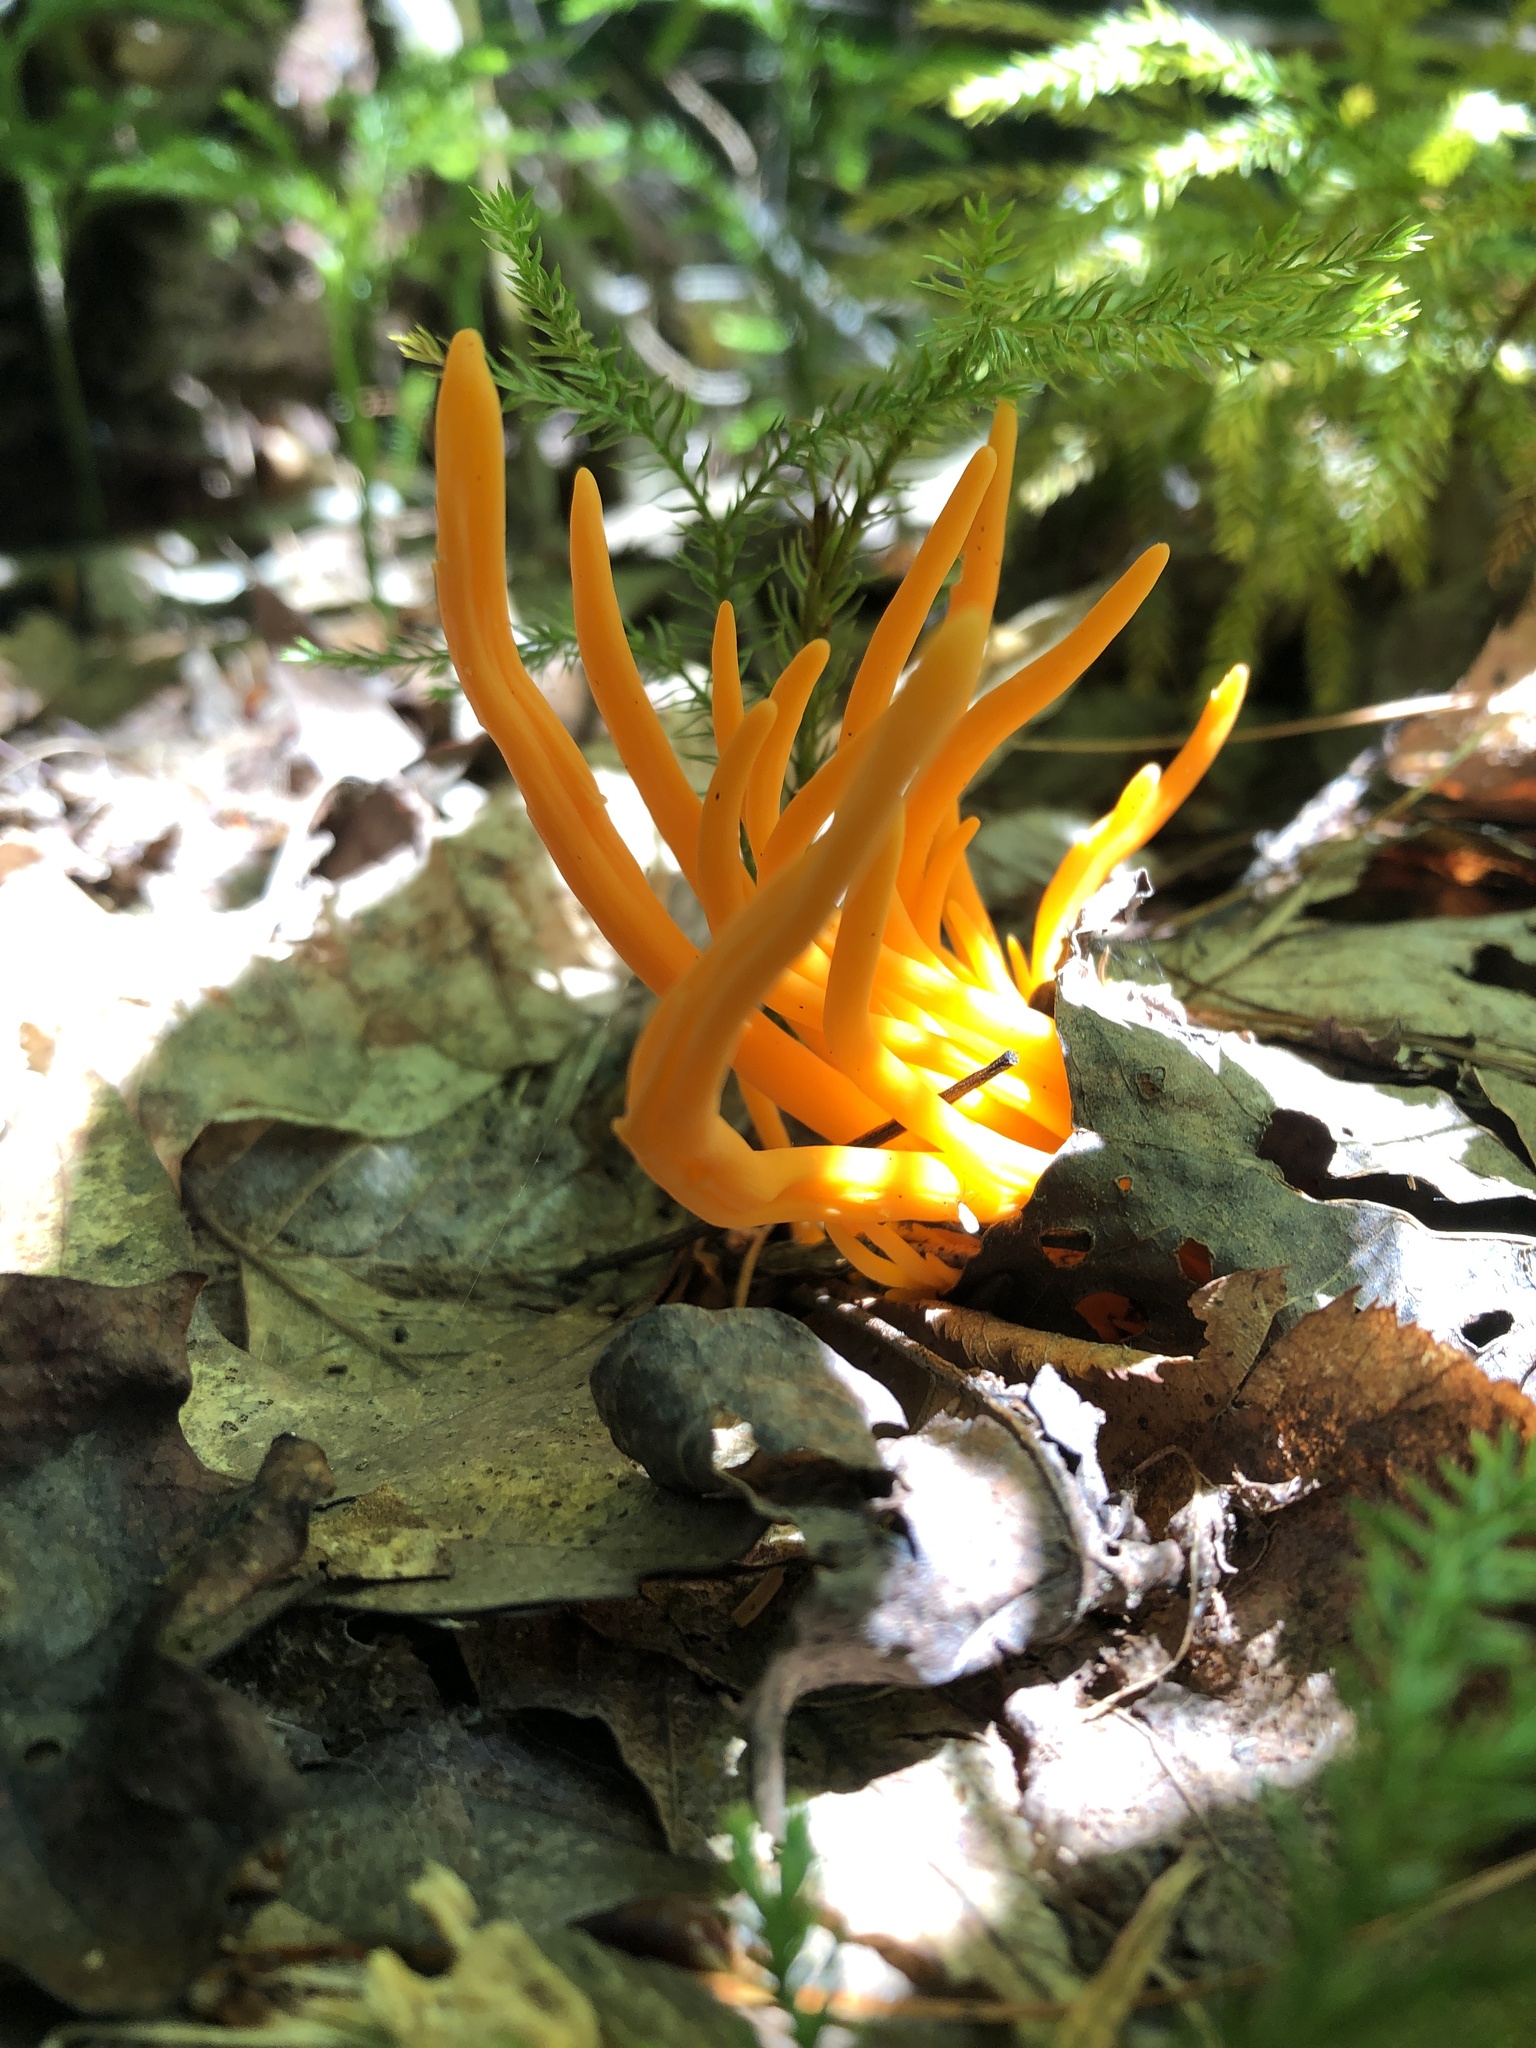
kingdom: Fungi
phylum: Basidiomycota
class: Agaricomycetes
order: Agaricales
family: Clavariaceae
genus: Clavulinopsis
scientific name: Clavulinopsis aurantiocinnabarina
